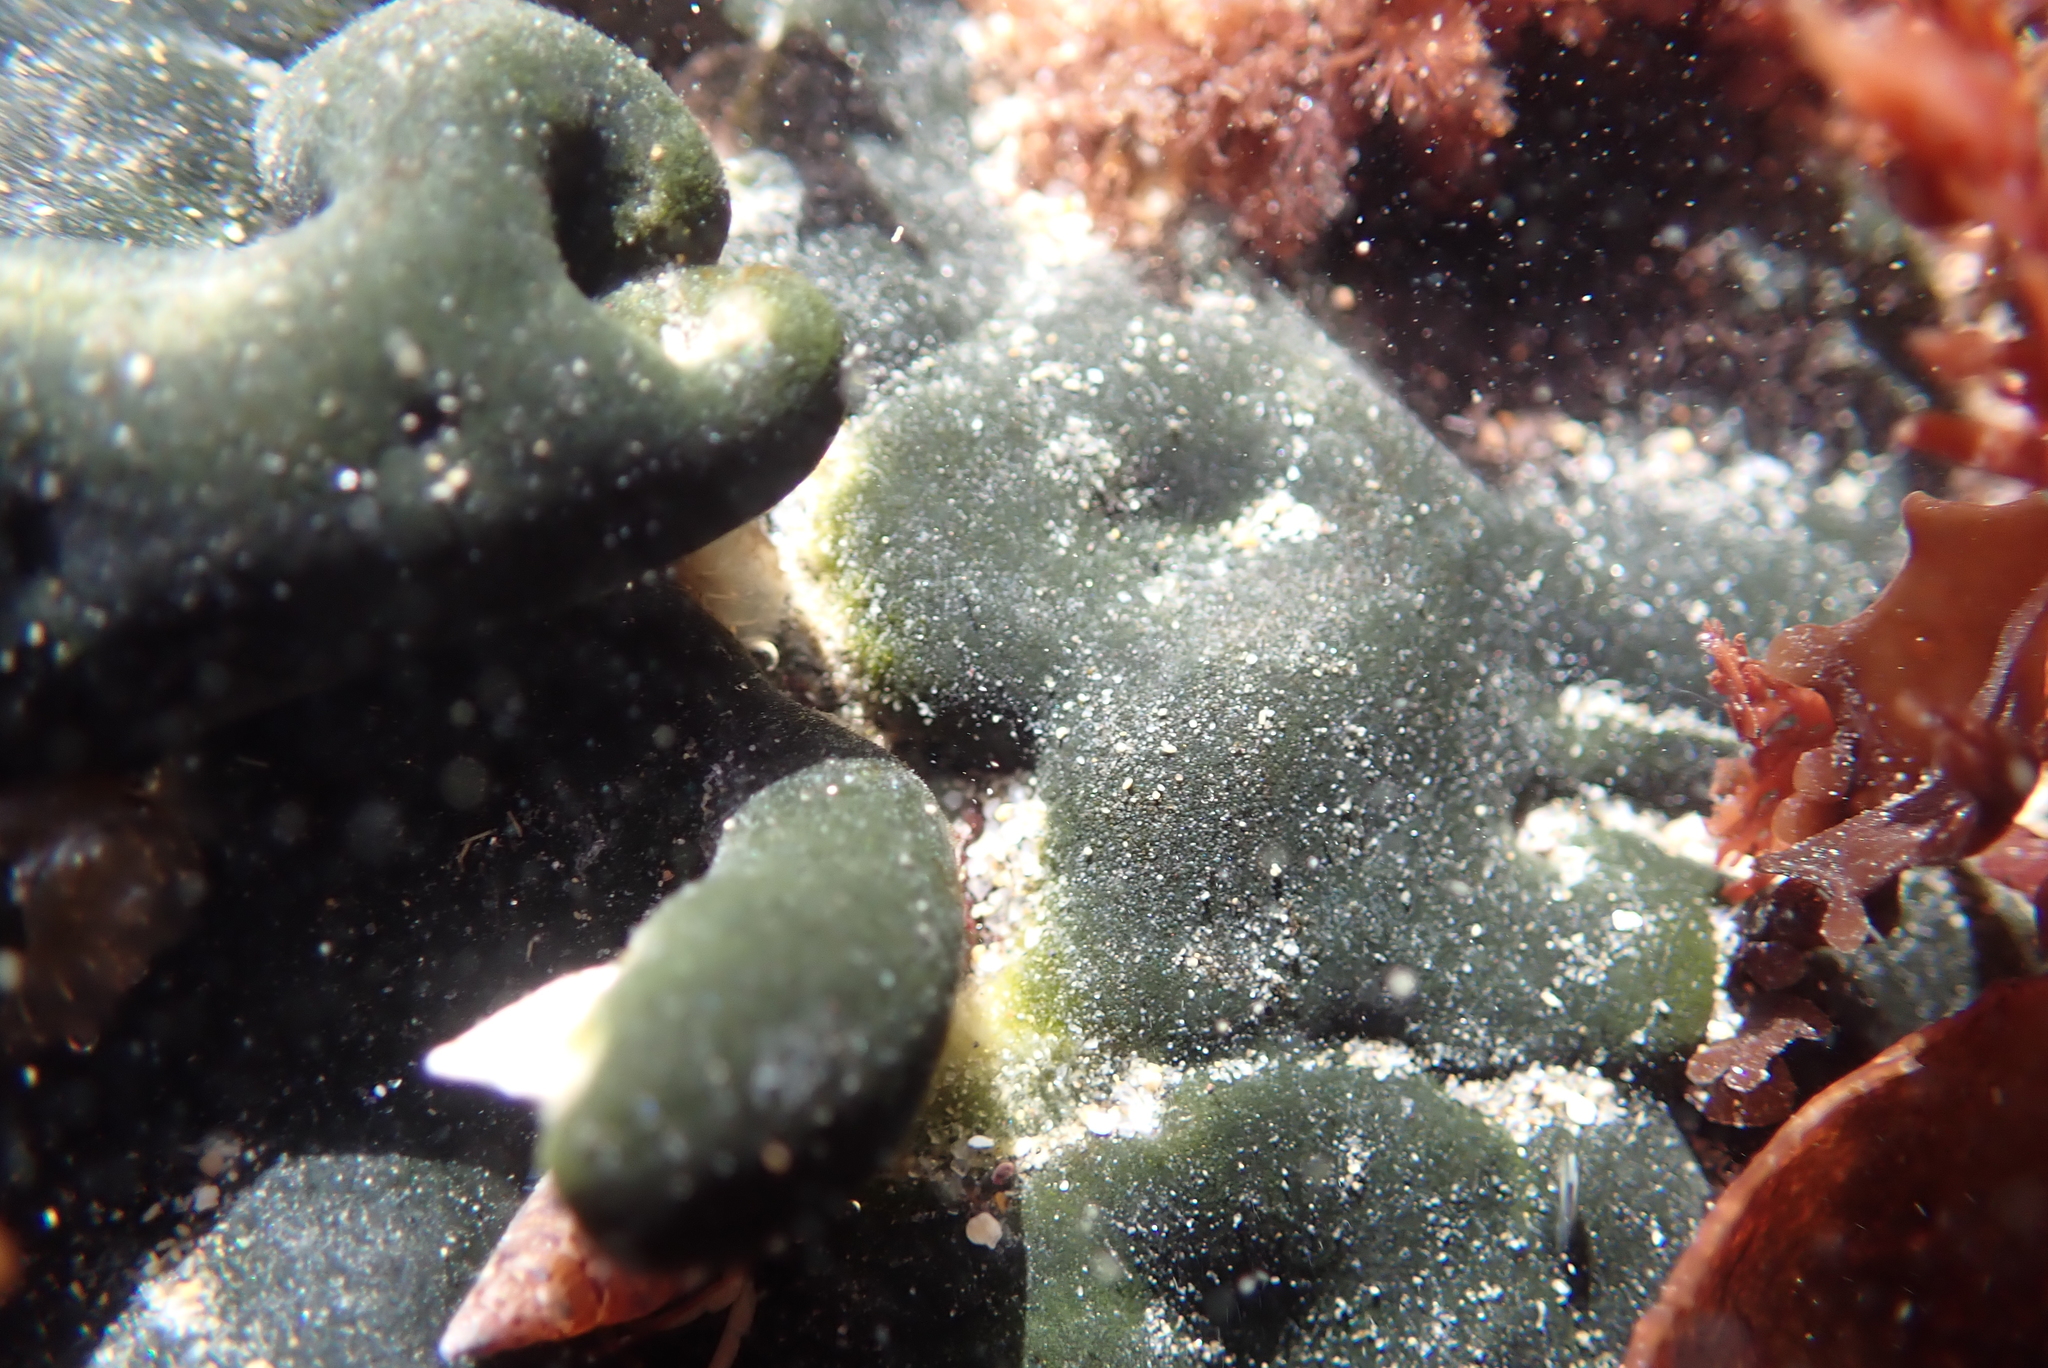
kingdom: Plantae
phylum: Chlorophyta
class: Ulvophyceae
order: Bryopsidales
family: Codiaceae
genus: Codium
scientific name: Codium setchellii
